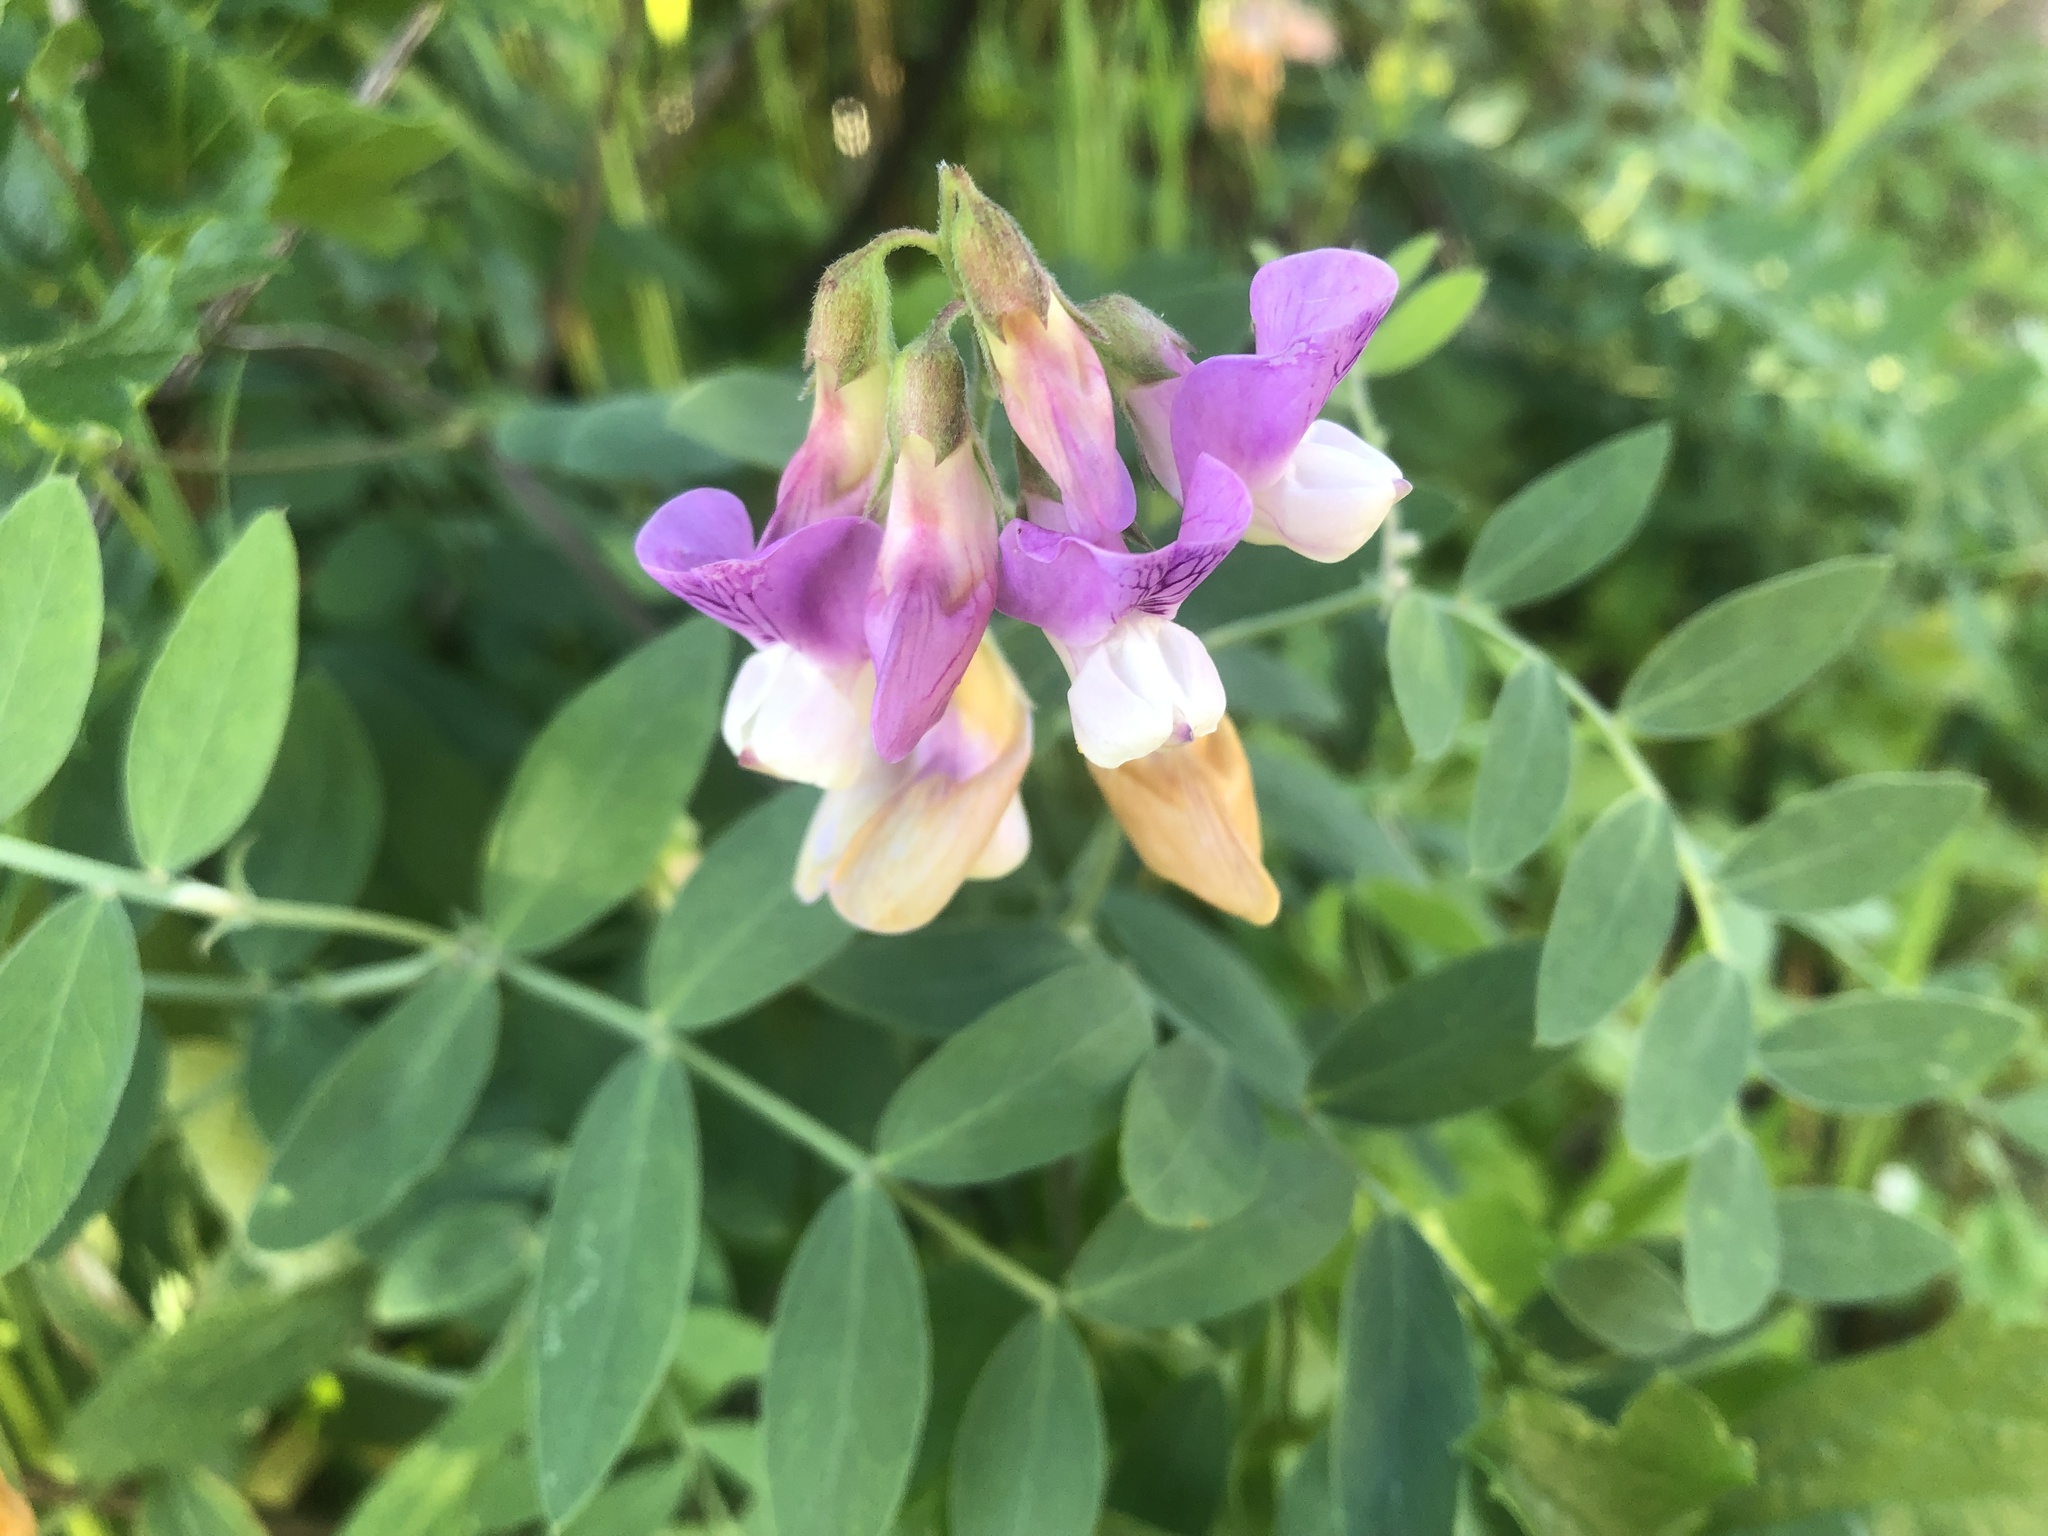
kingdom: Plantae
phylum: Tracheophyta
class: Magnoliopsida
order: Fabales
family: Fabaceae
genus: Lathyrus
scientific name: Lathyrus vestitus
